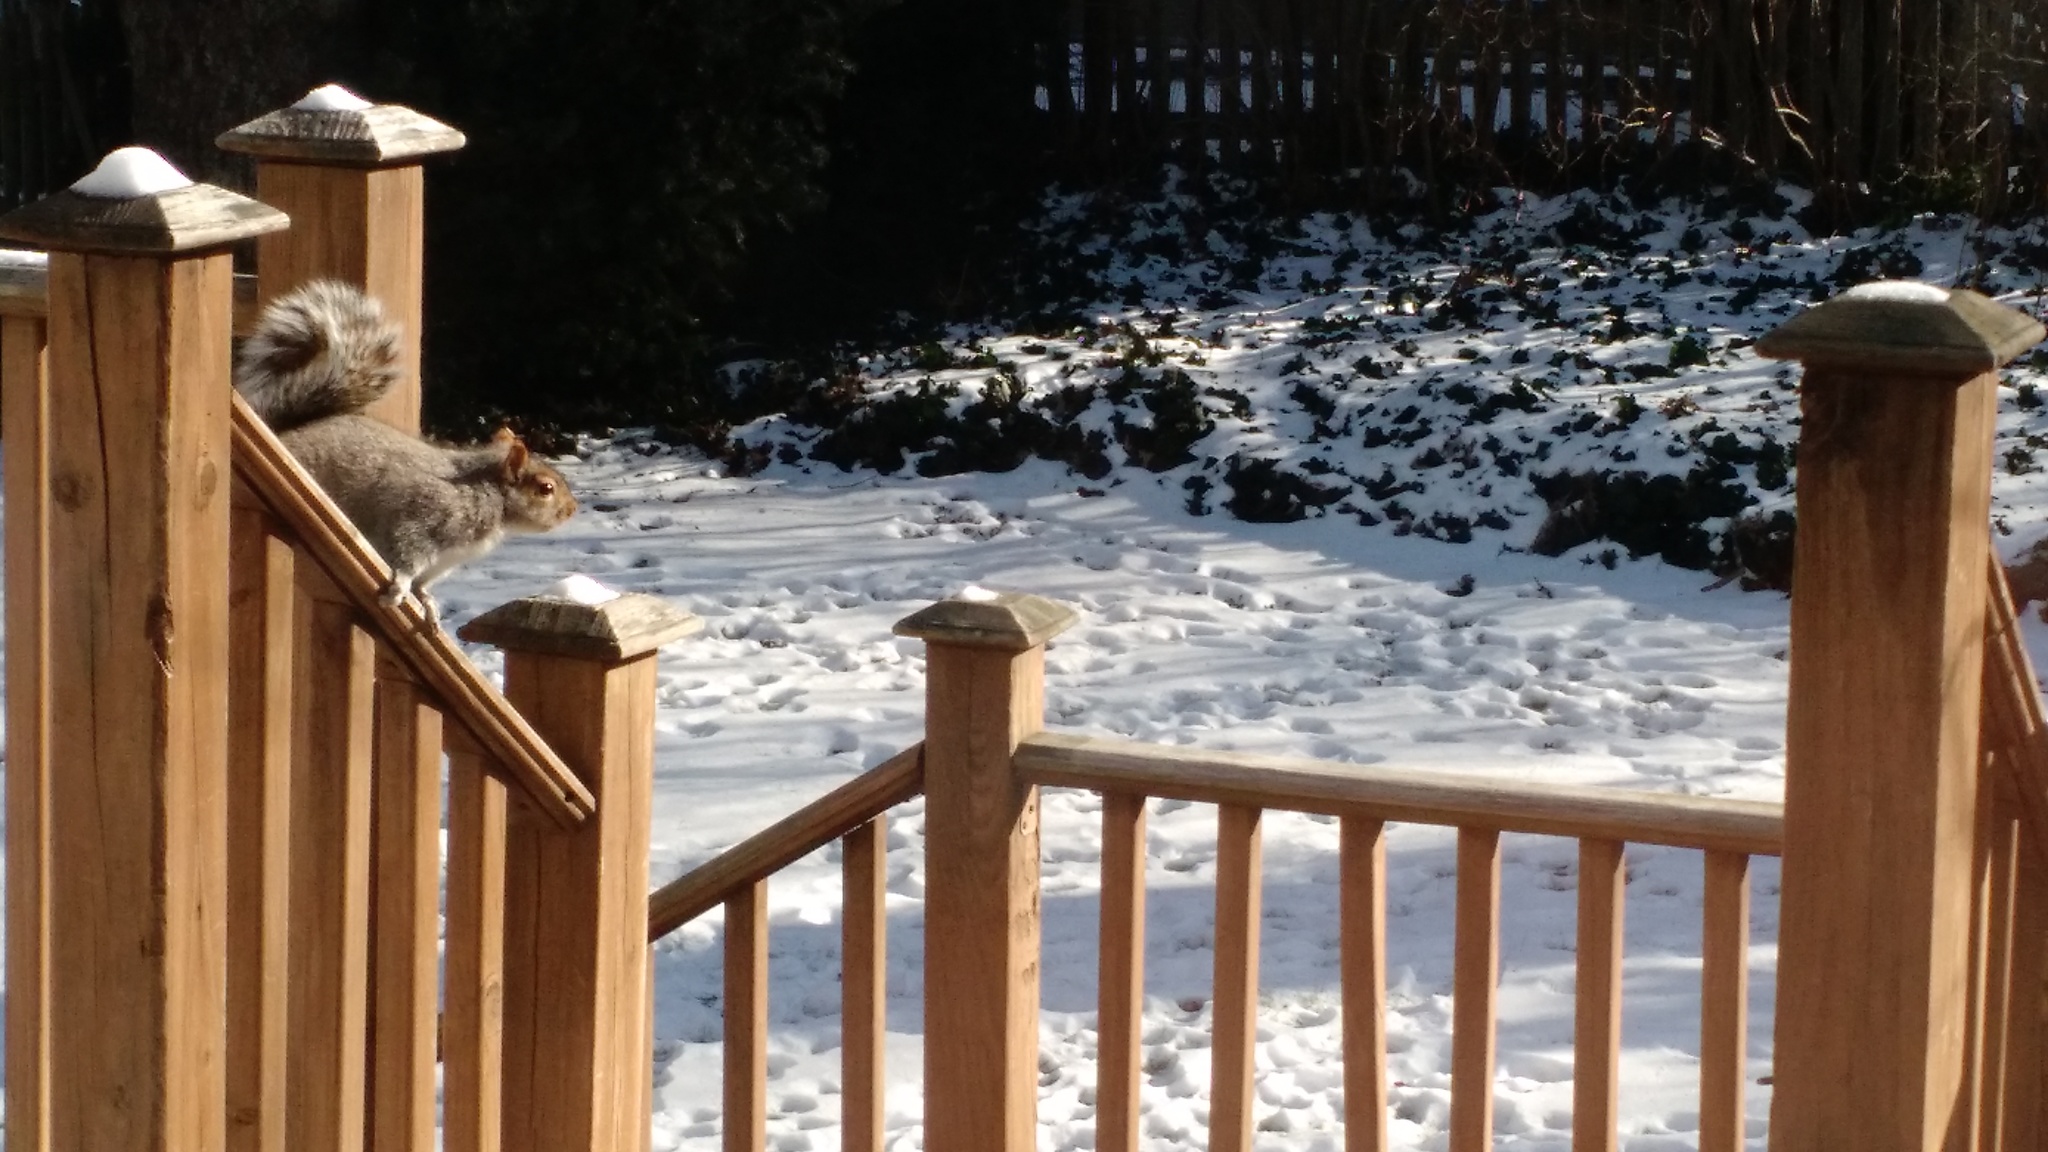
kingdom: Animalia
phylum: Chordata
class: Mammalia
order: Rodentia
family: Sciuridae
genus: Sciurus
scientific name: Sciurus carolinensis
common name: Eastern gray squirrel
